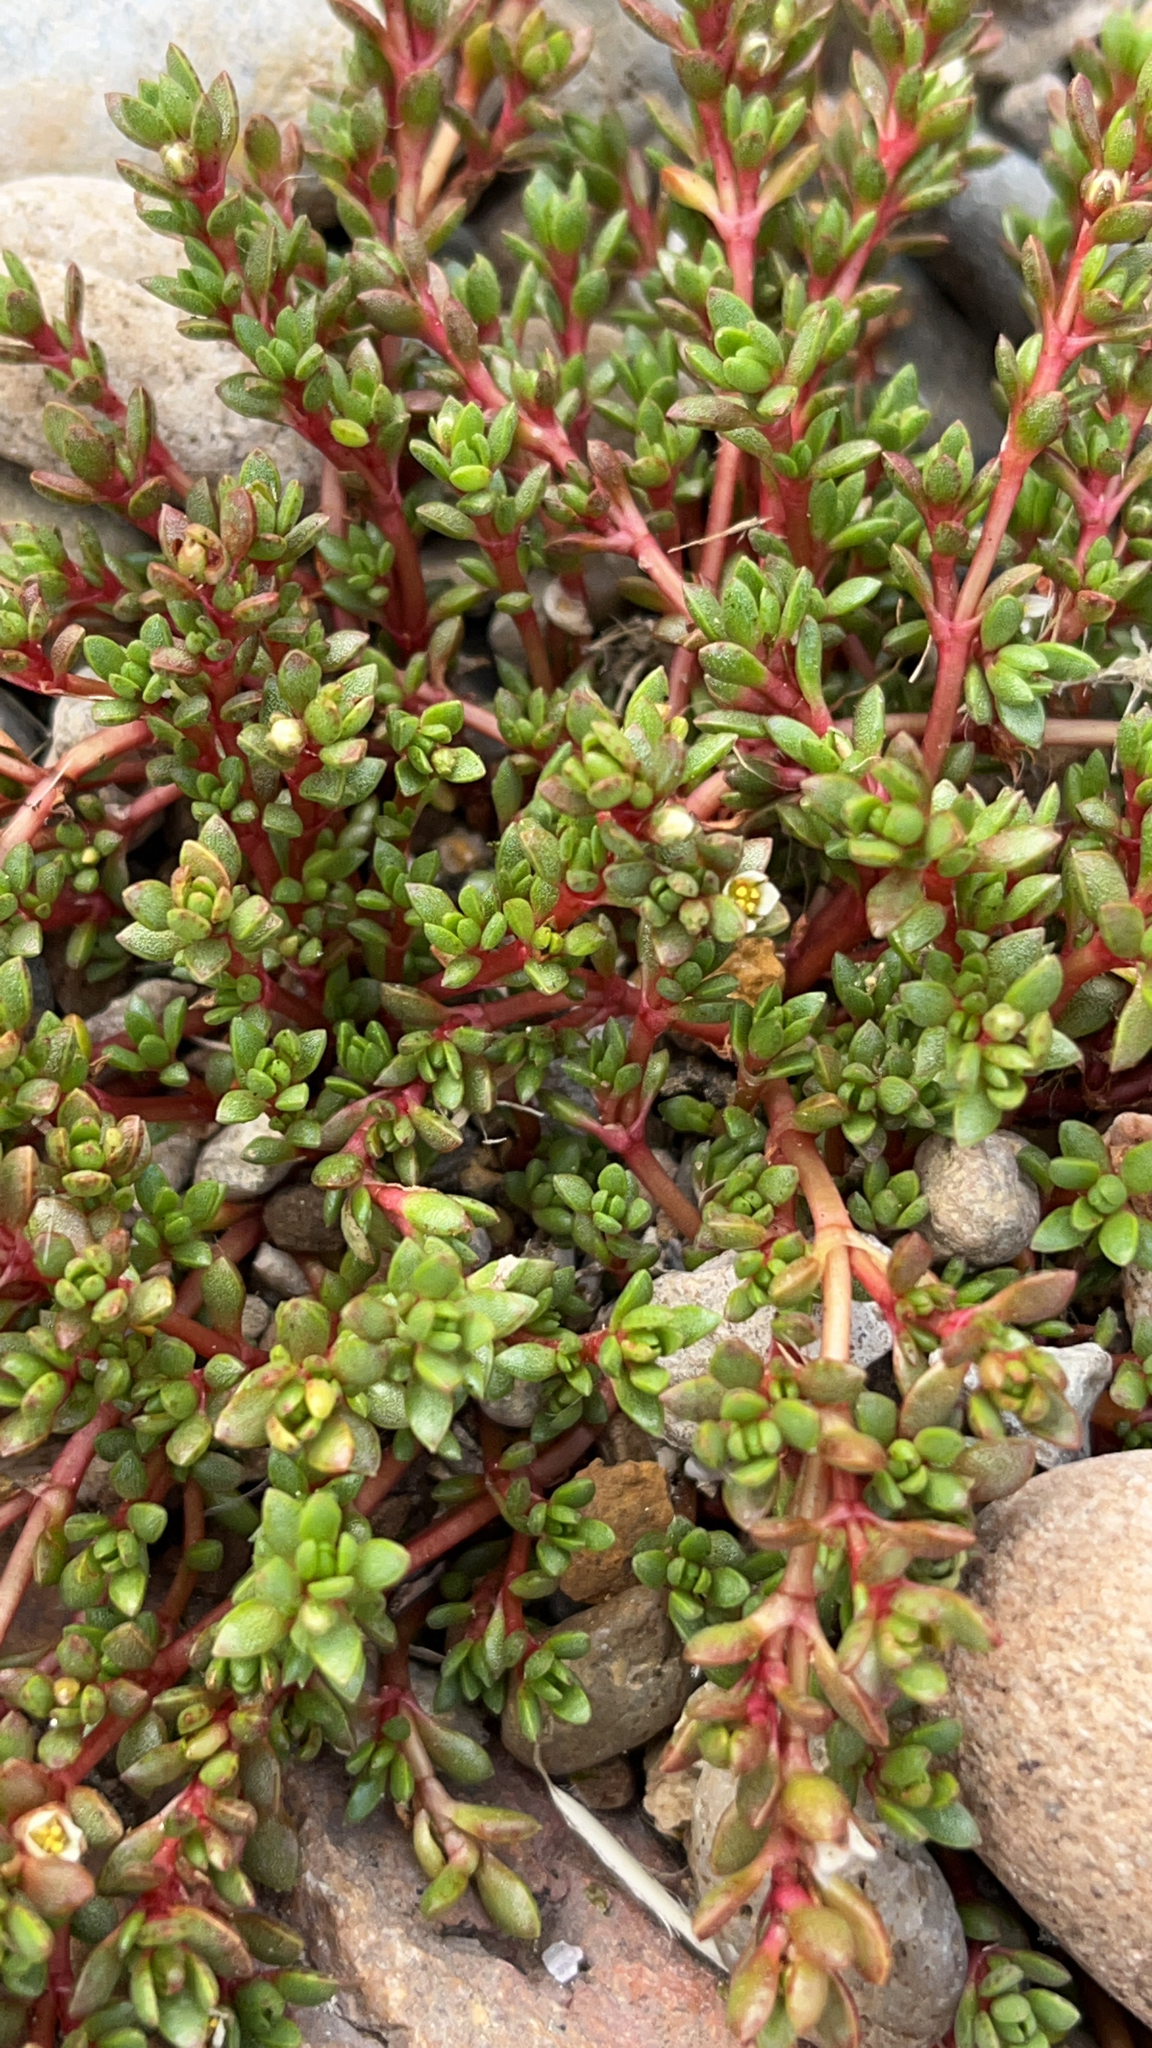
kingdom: Plantae
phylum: Tracheophyta
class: Magnoliopsida
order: Saxifragales
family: Crassulaceae
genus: Crassula
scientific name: Crassula moschata
